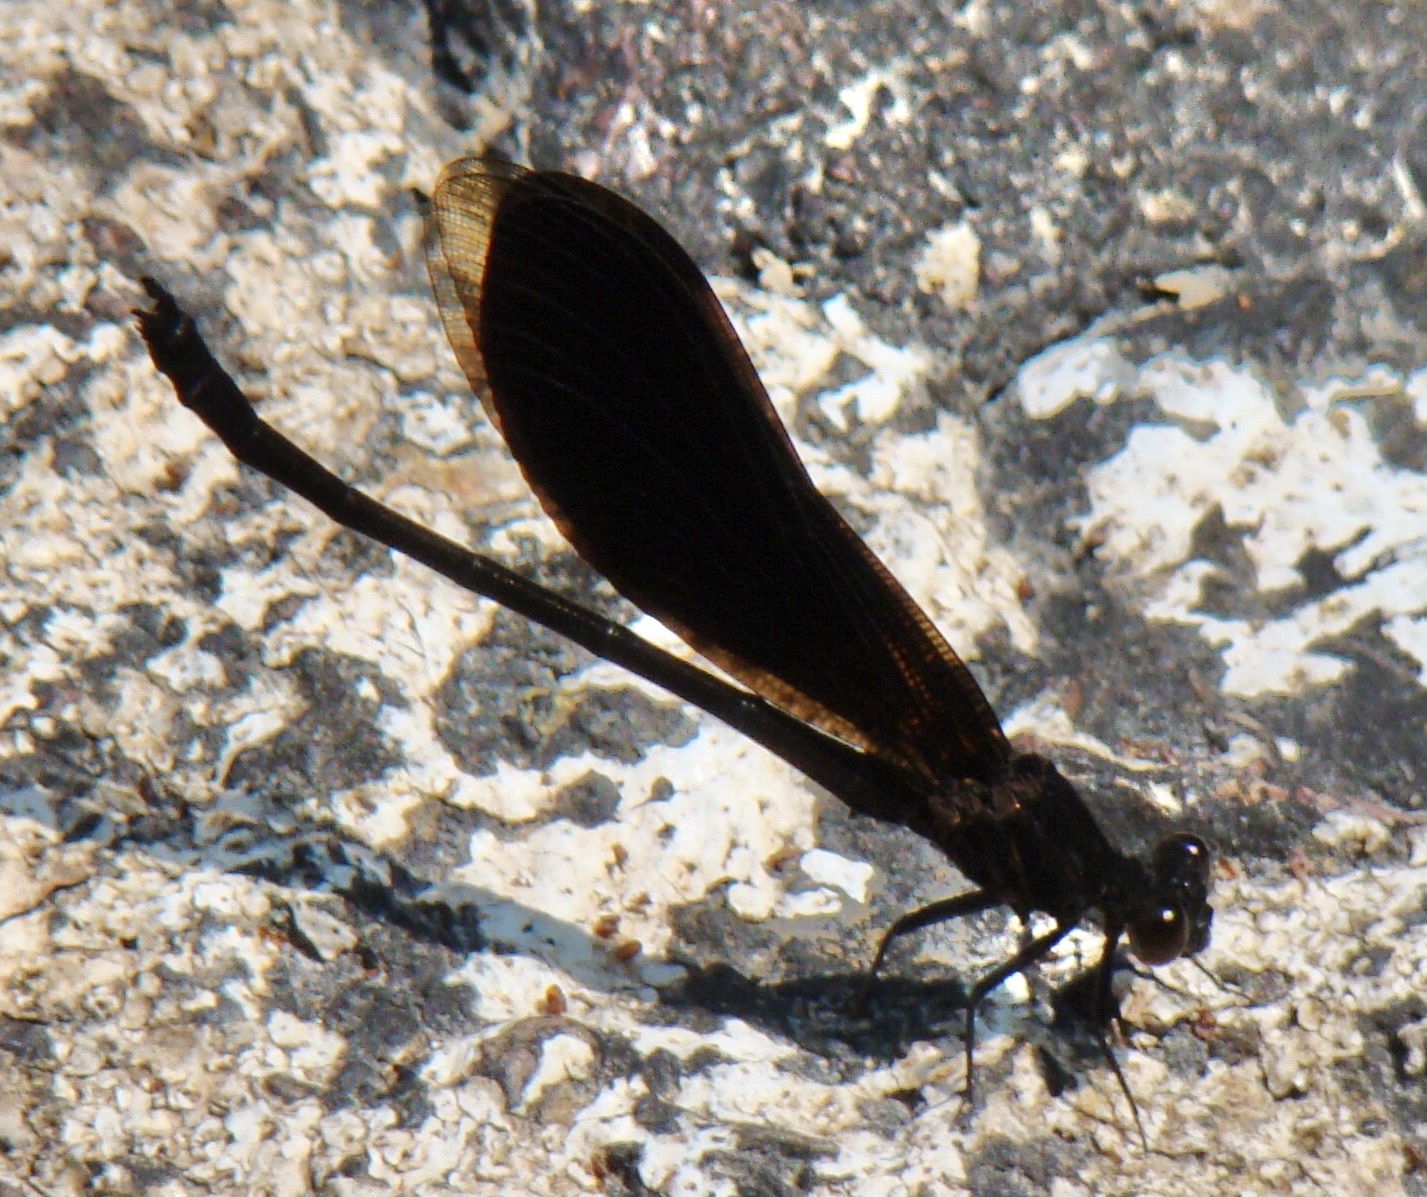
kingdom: Animalia
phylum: Arthropoda
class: Insecta
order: Odonata
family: Euphaeidae
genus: Euphaea
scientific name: Euphaea masoni
